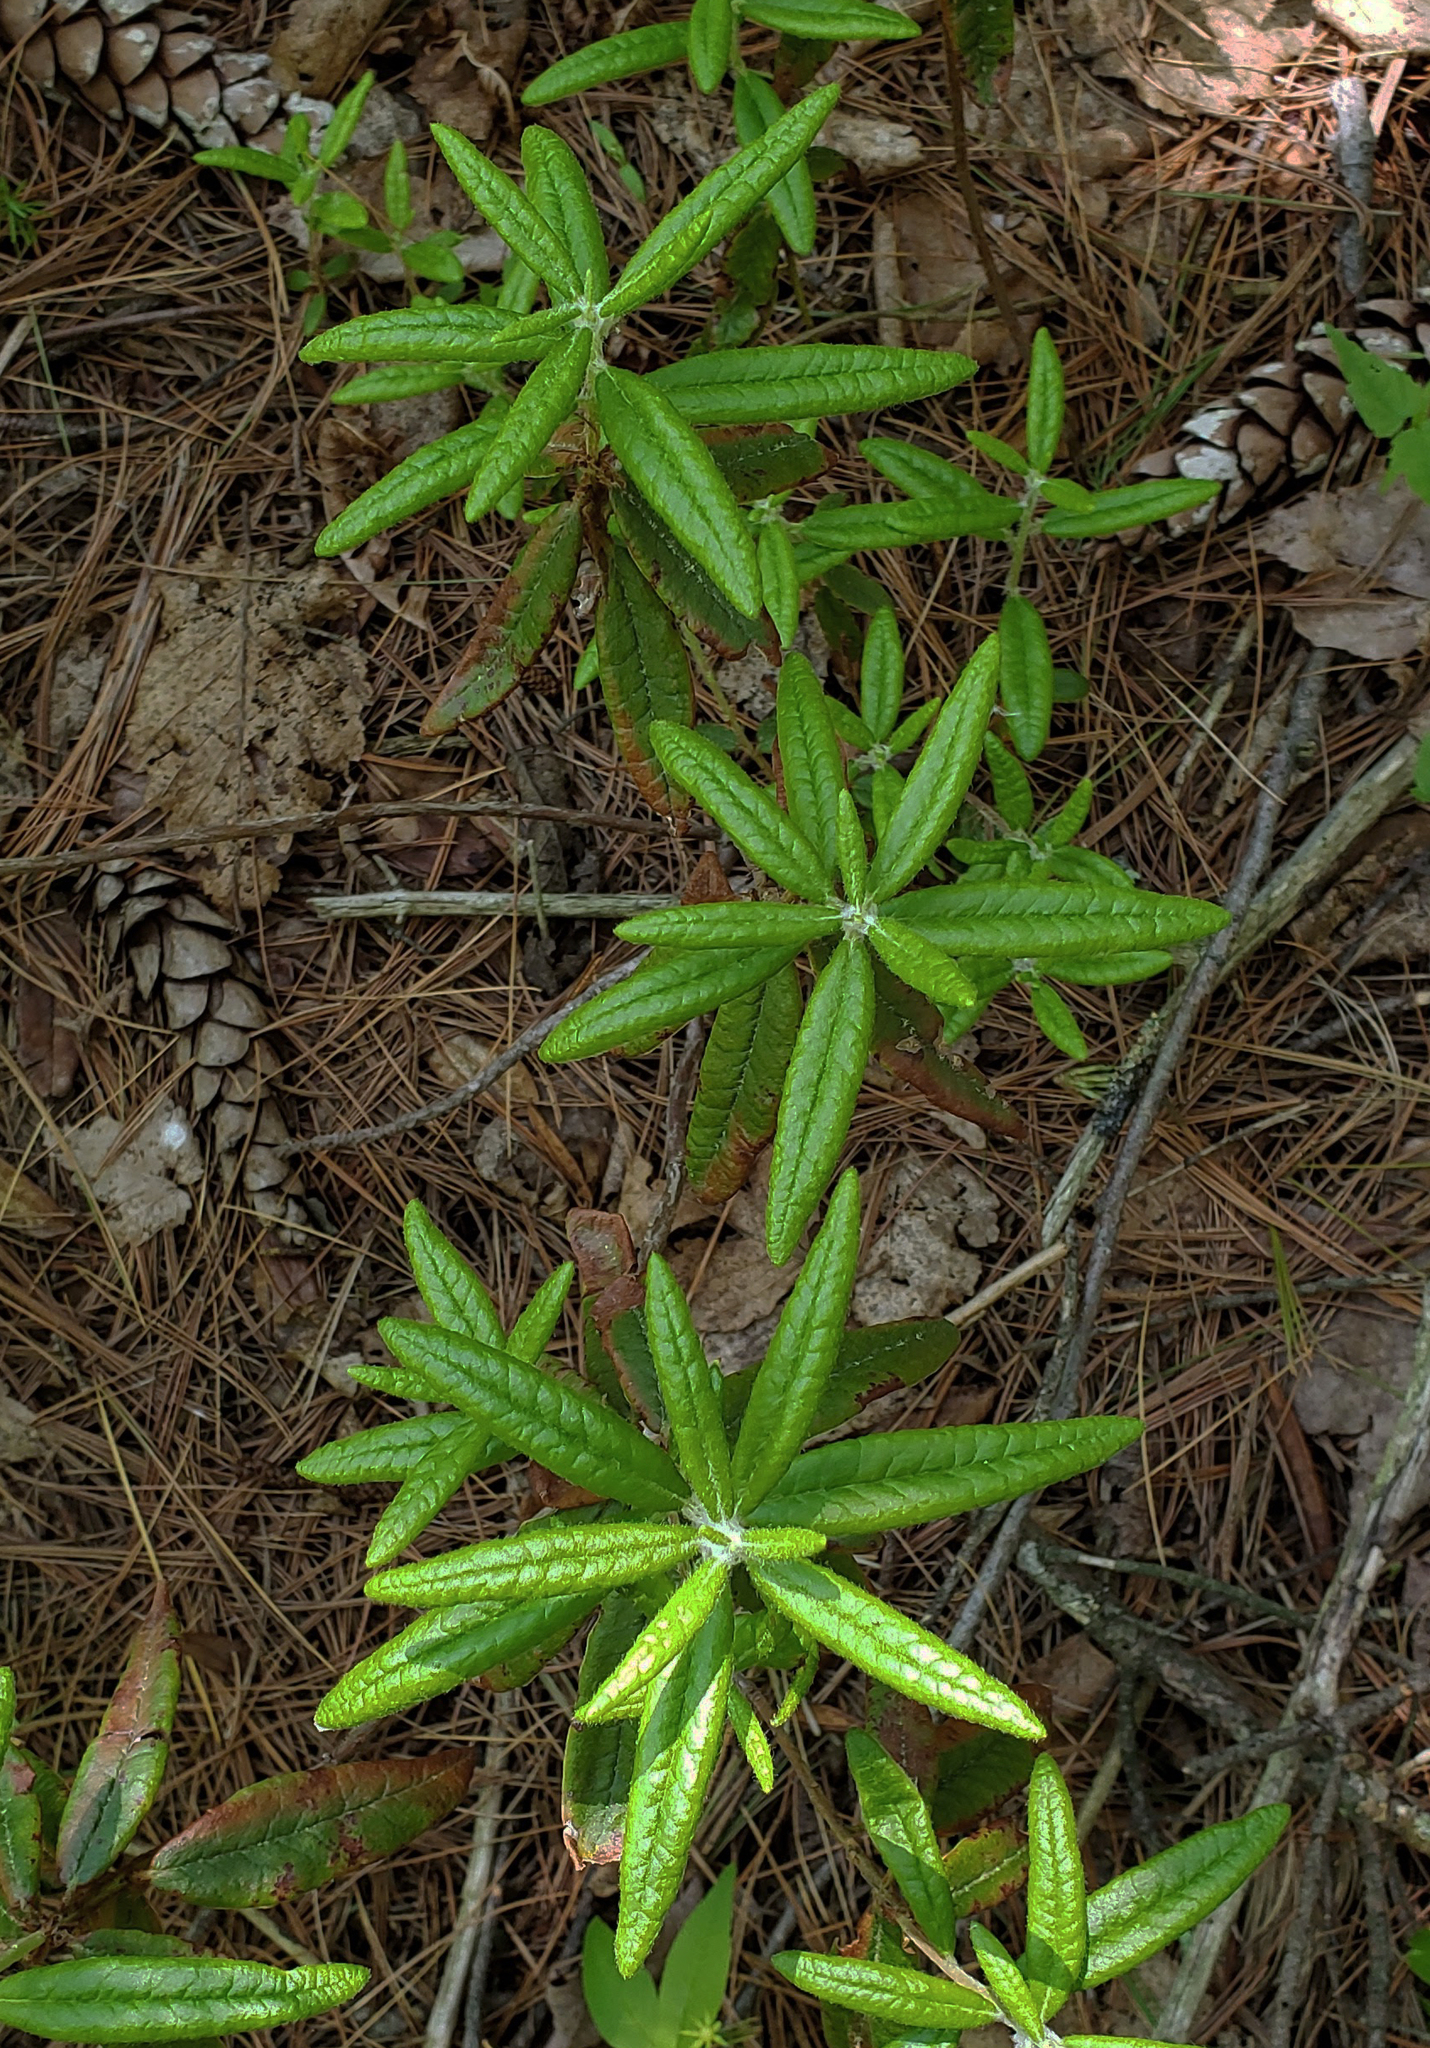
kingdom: Plantae
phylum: Tracheophyta
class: Magnoliopsida
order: Ericales
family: Ericaceae
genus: Rhododendron
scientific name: Rhododendron groenlandicum
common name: Bog labrador tea
